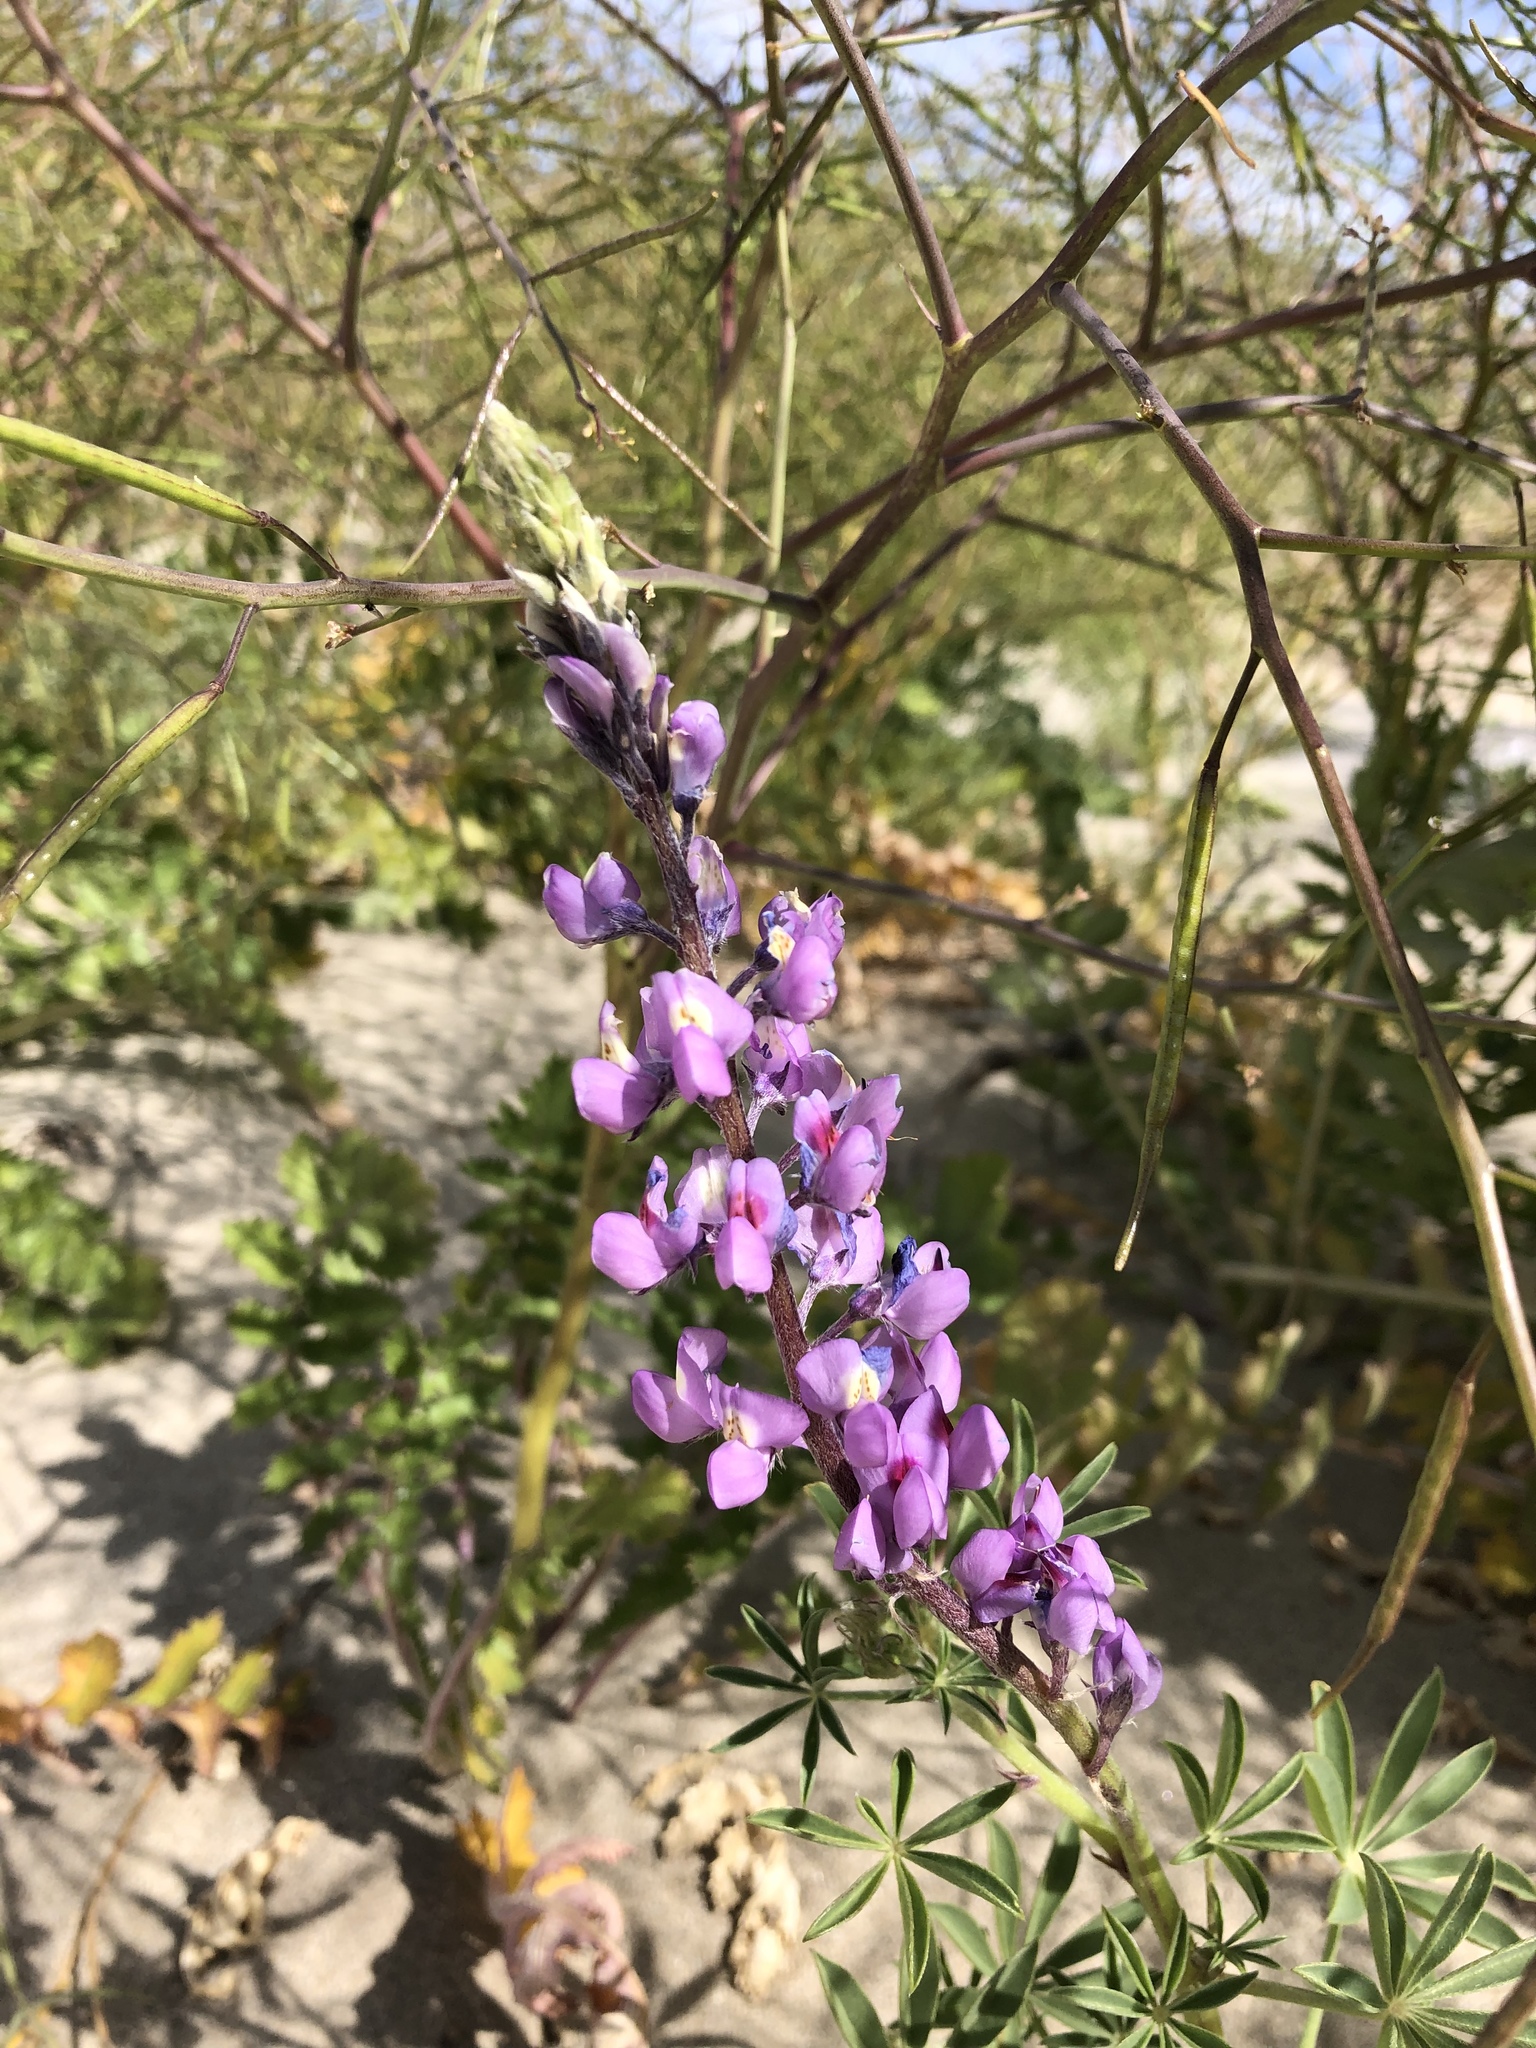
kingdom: Plantae
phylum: Tracheophyta
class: Magnoliopsida
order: Fabales
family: Fabaceae
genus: Lupinus
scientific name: Lupinus arizonicus
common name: Arizona lupine
